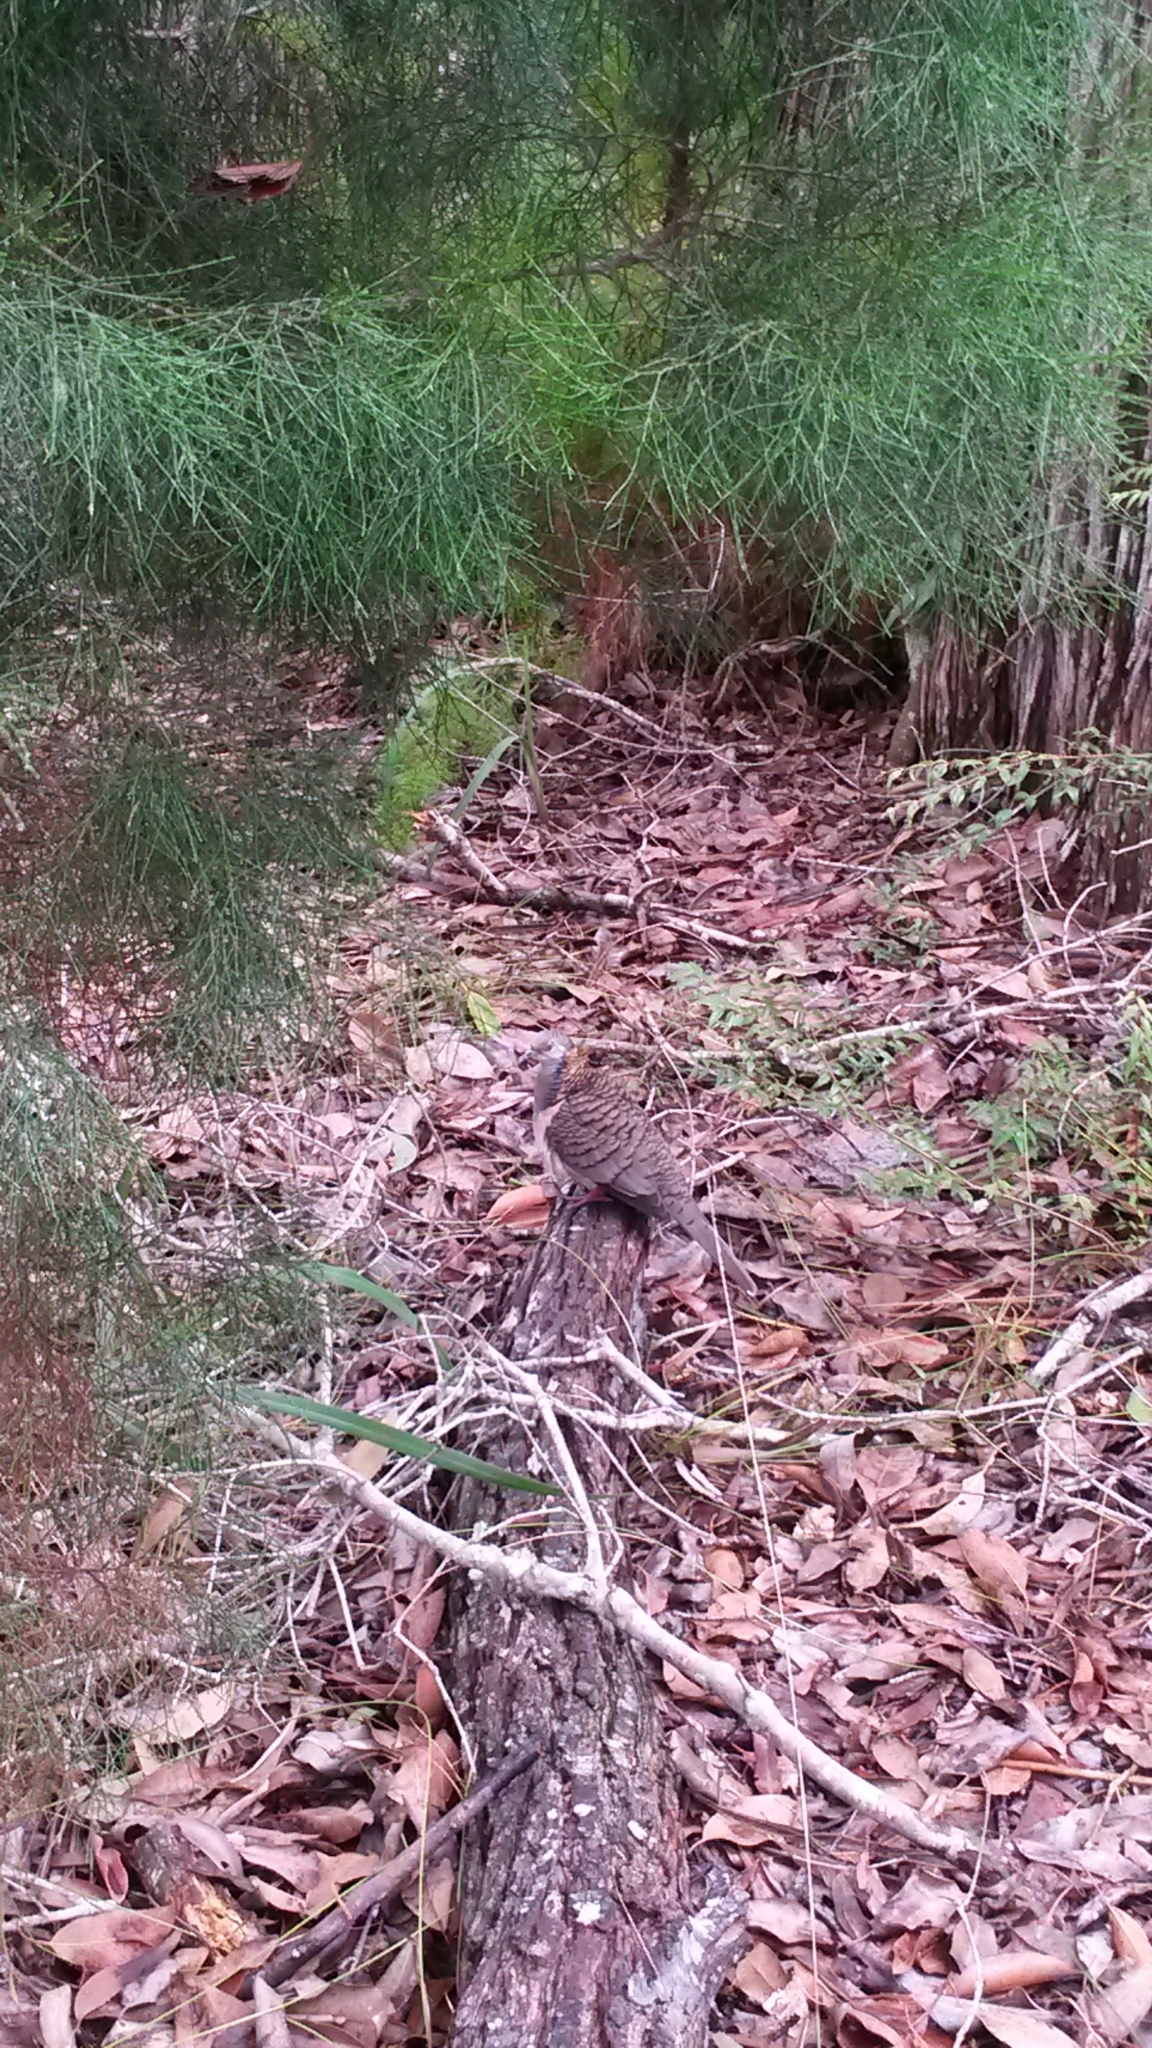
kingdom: Animalia
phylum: Chordata
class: Aves
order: Columbiformes
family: Columbidae
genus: Geopelia
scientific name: Geopelia humeralis
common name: Bar-shouldered dove
